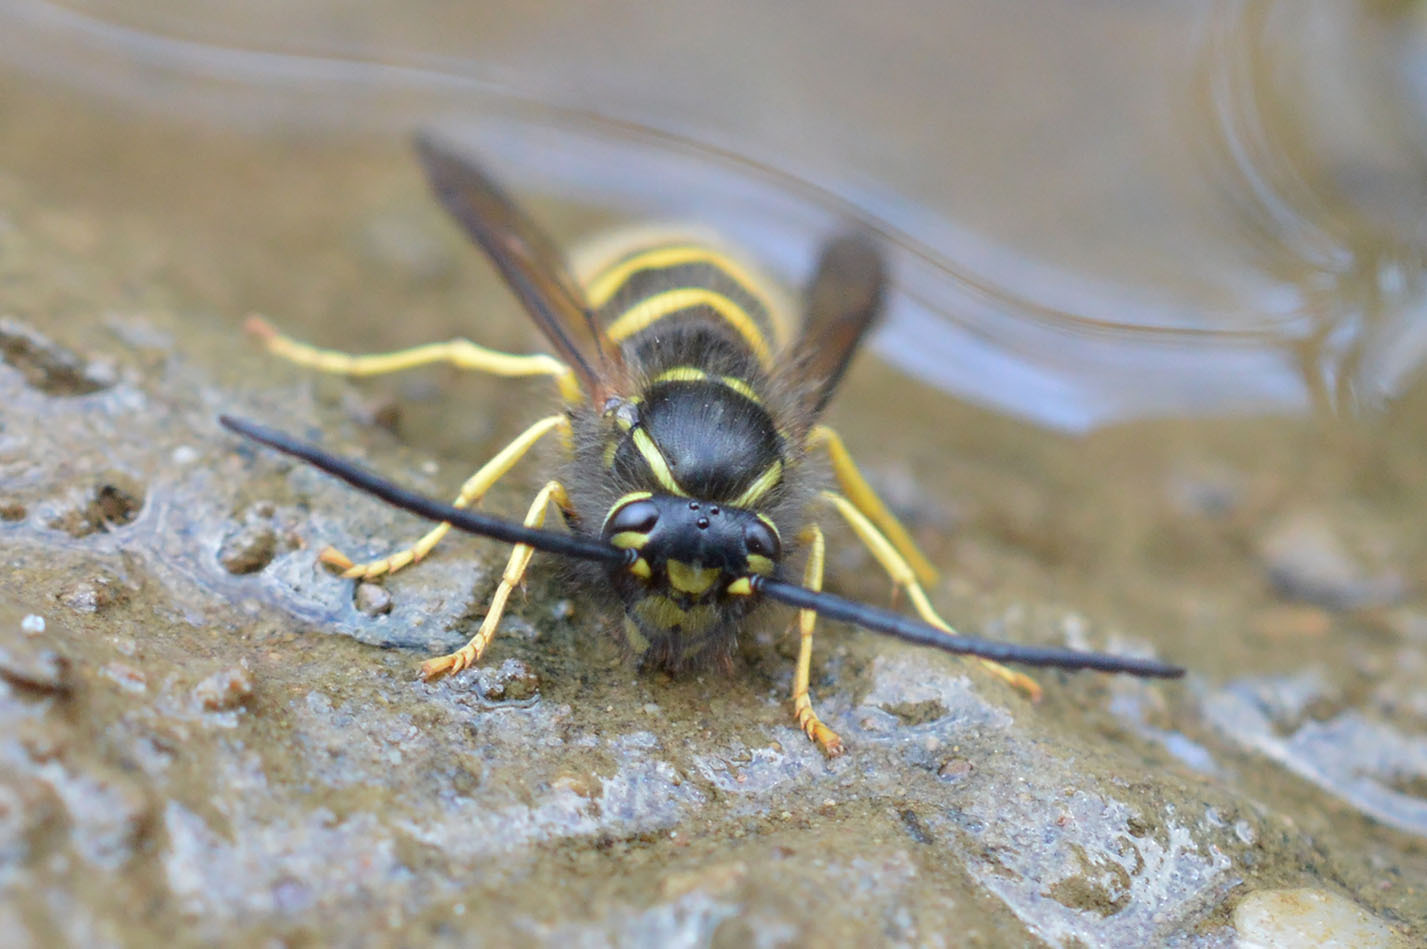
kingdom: Animalia
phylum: Arthropoda
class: Insecta
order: Hymenoptera
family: Vespidae
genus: Vespula
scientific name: Vespula vulgaris
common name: Common wasp
